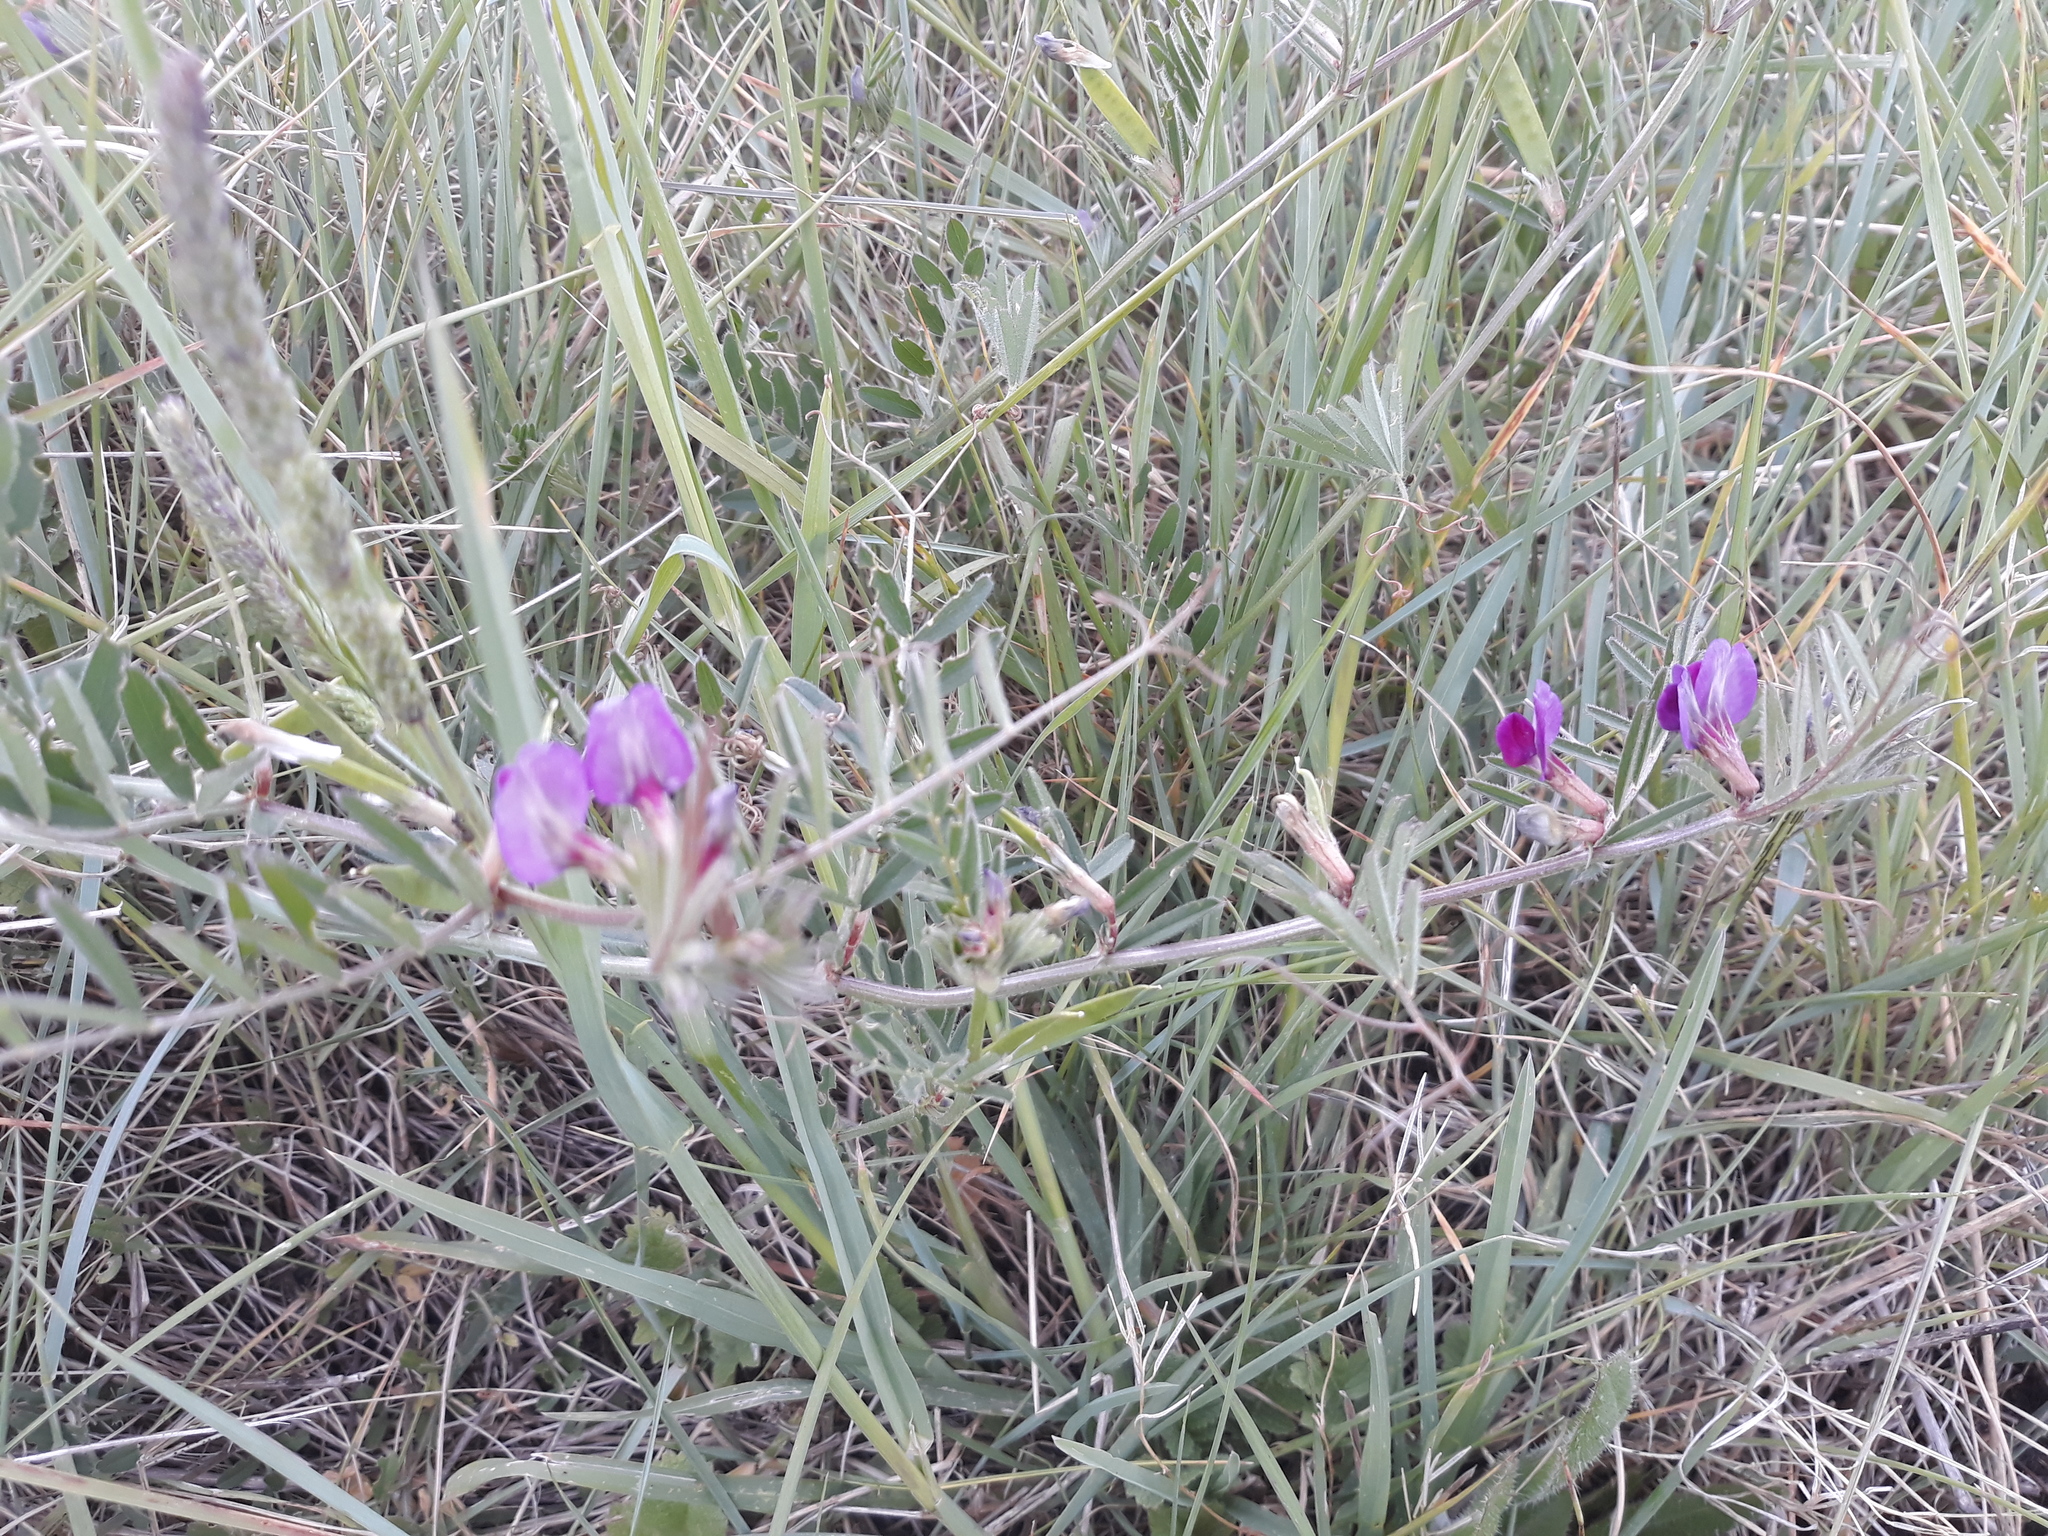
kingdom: Plantae
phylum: Tracheophyta
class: Magnoliopsida
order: Fabales
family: Fabaceae
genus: Vicia
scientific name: Vicia sativa
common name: Garden vetch
